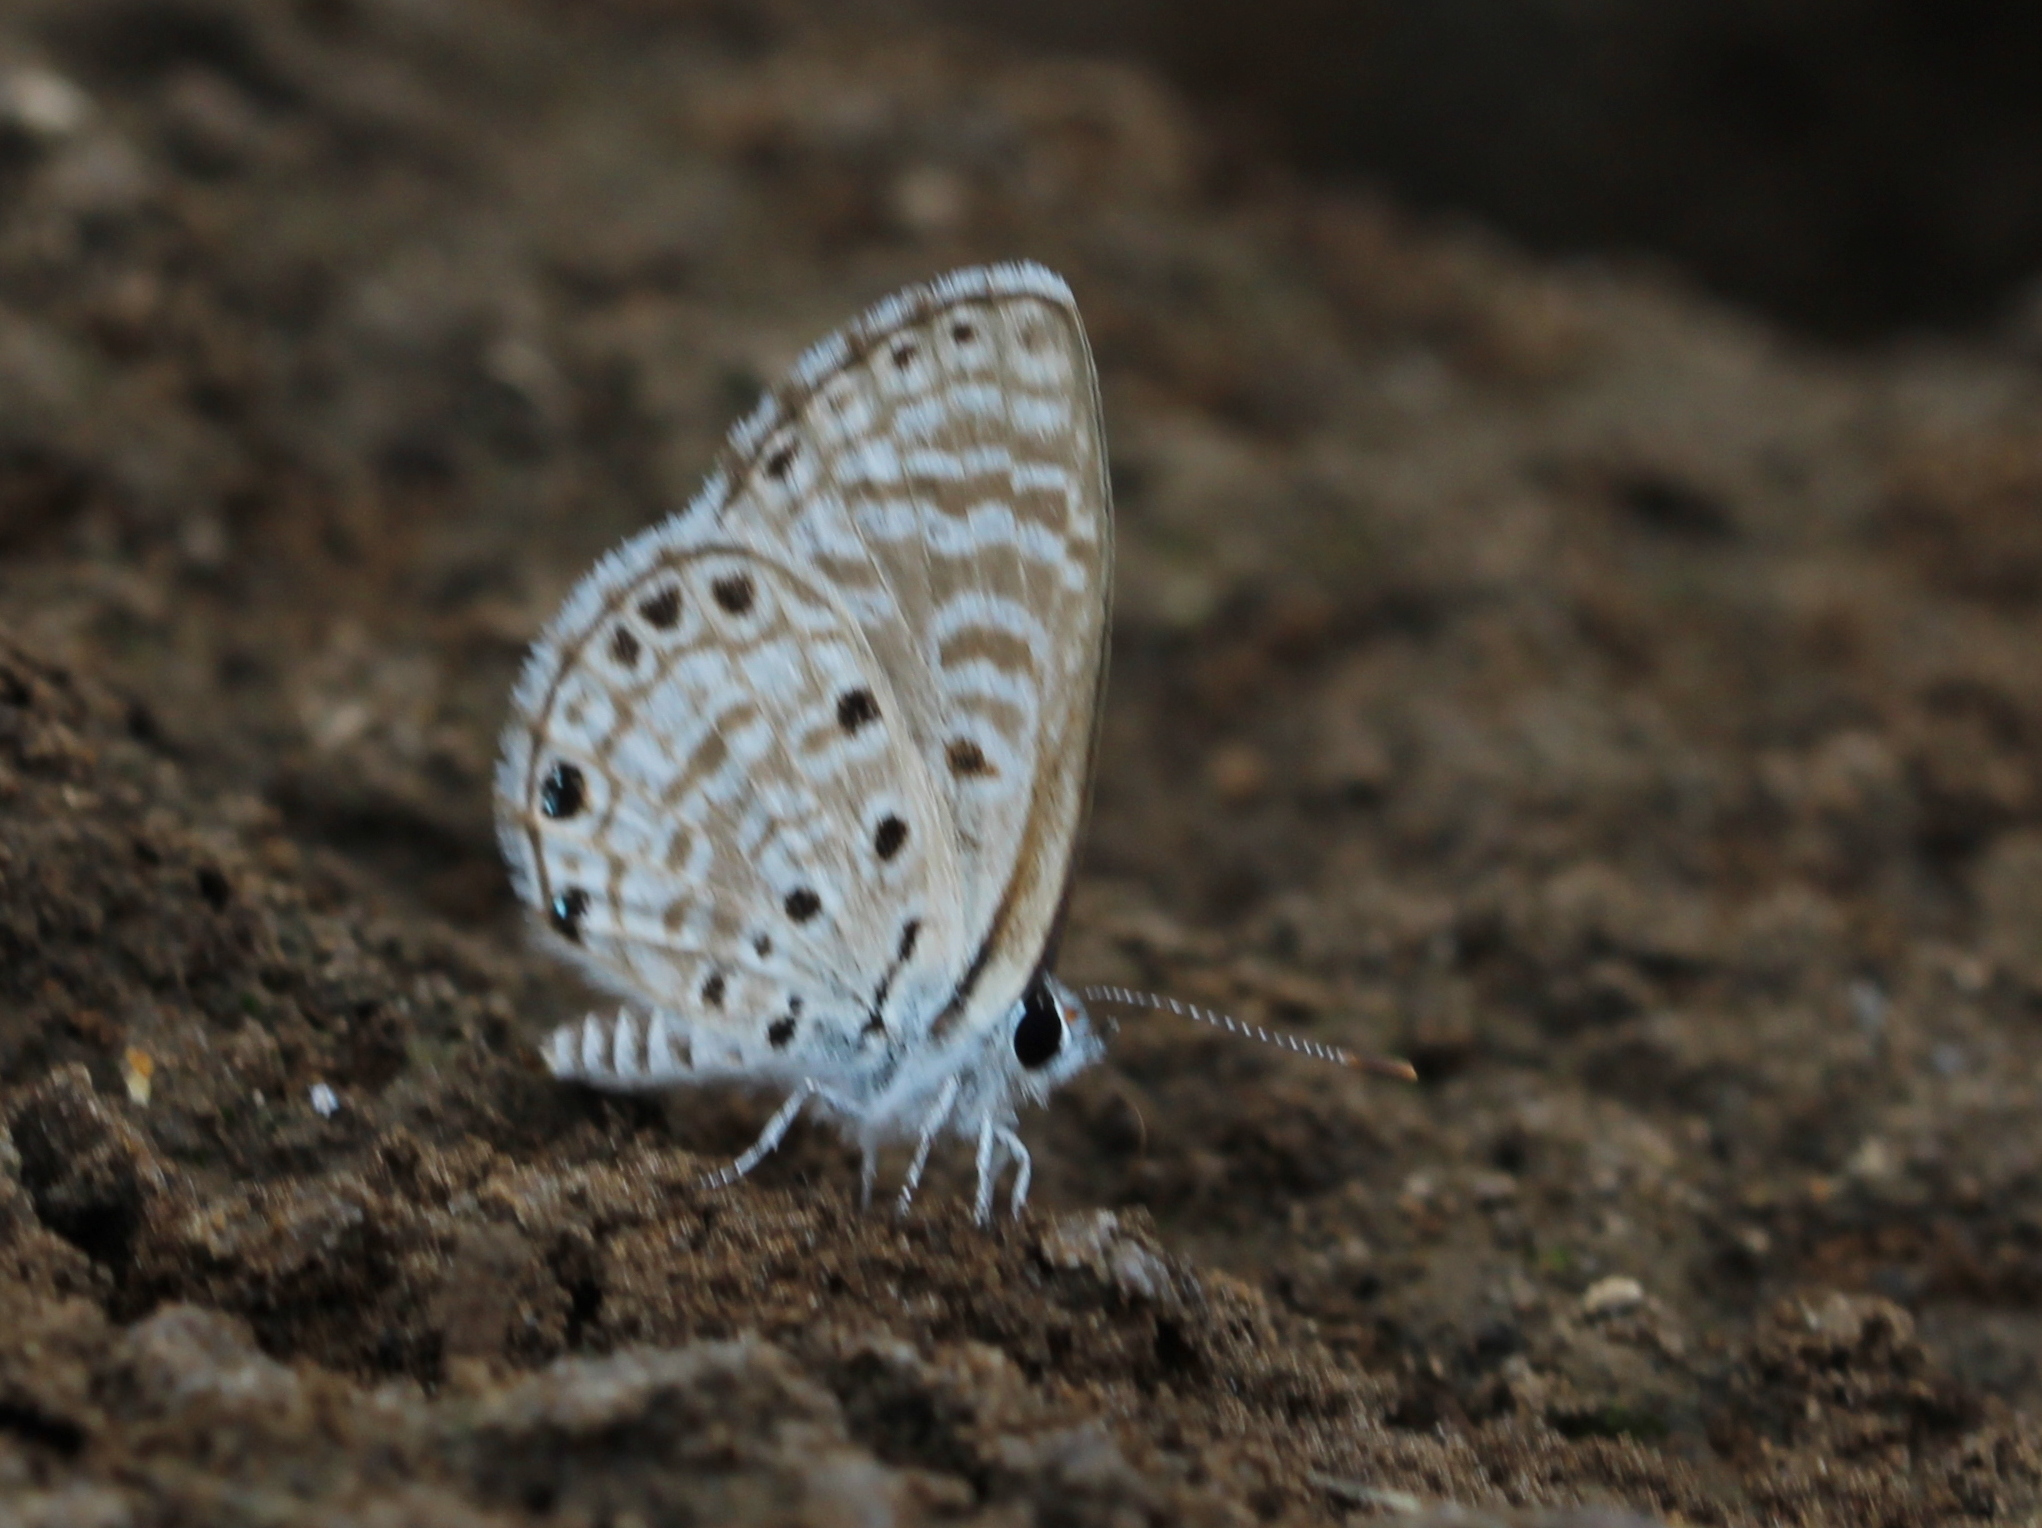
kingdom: Animalia
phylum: Arthropoda
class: Insecta
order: Lepidoptera
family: Lycaenidae
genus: Azanus
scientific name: Azanus jesous
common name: African babul blue
